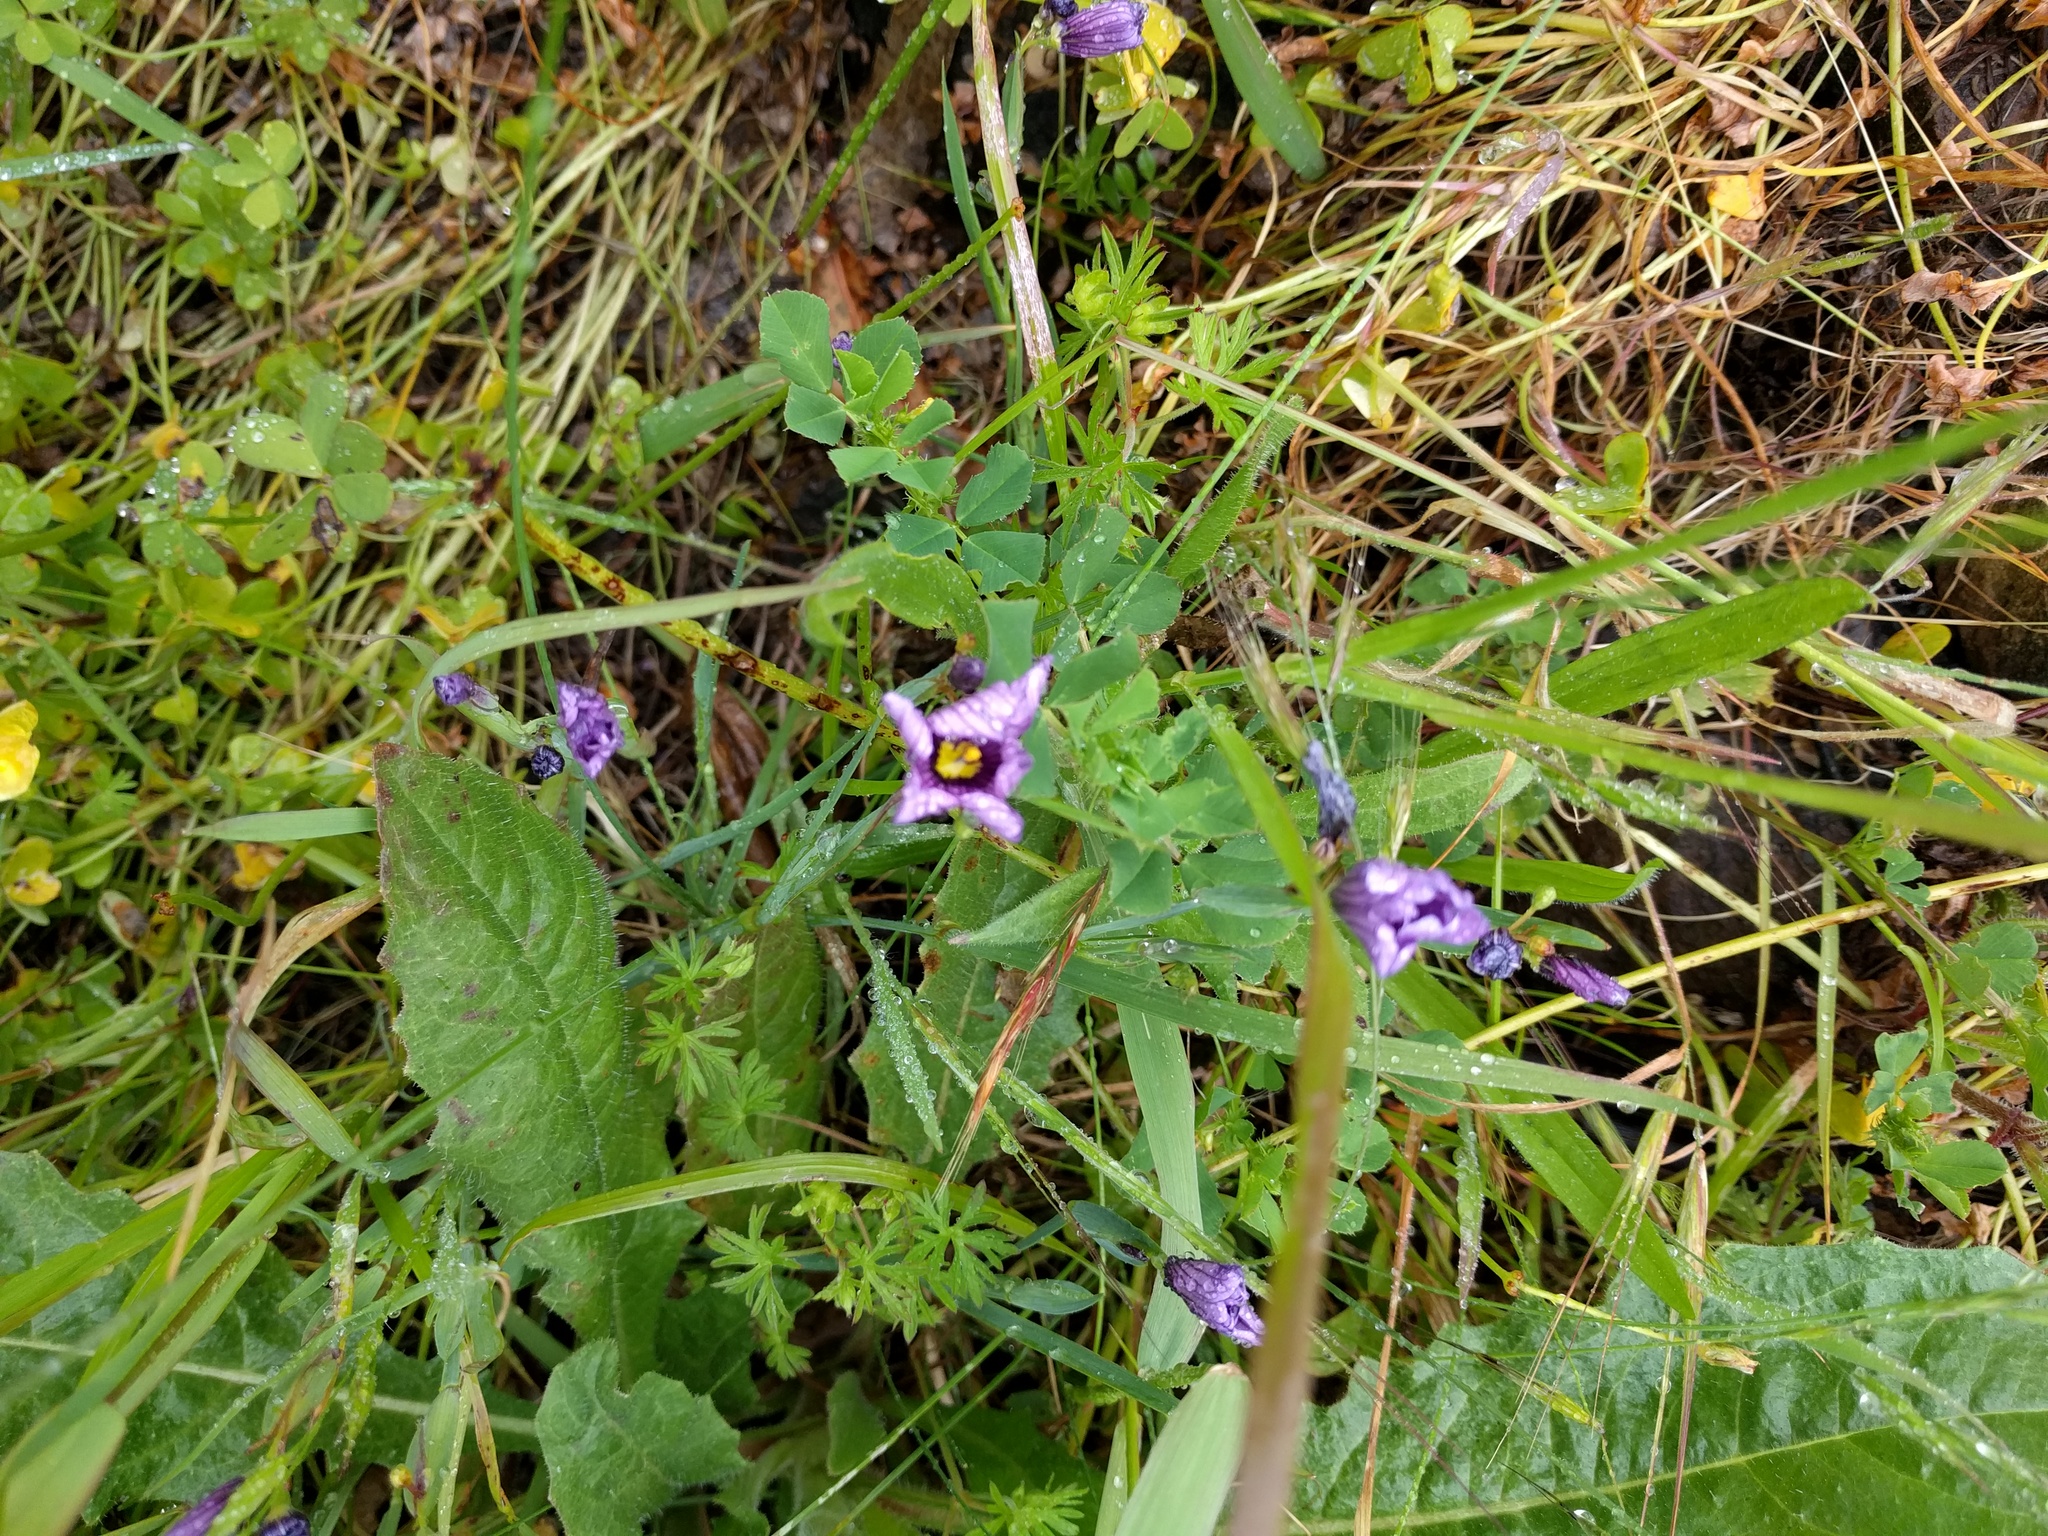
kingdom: Plantae
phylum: Tracheophyta
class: Liliopsida
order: Asparagales
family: Iridaceae
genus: Sisyrinchium
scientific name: Sisyrinchium bellum
